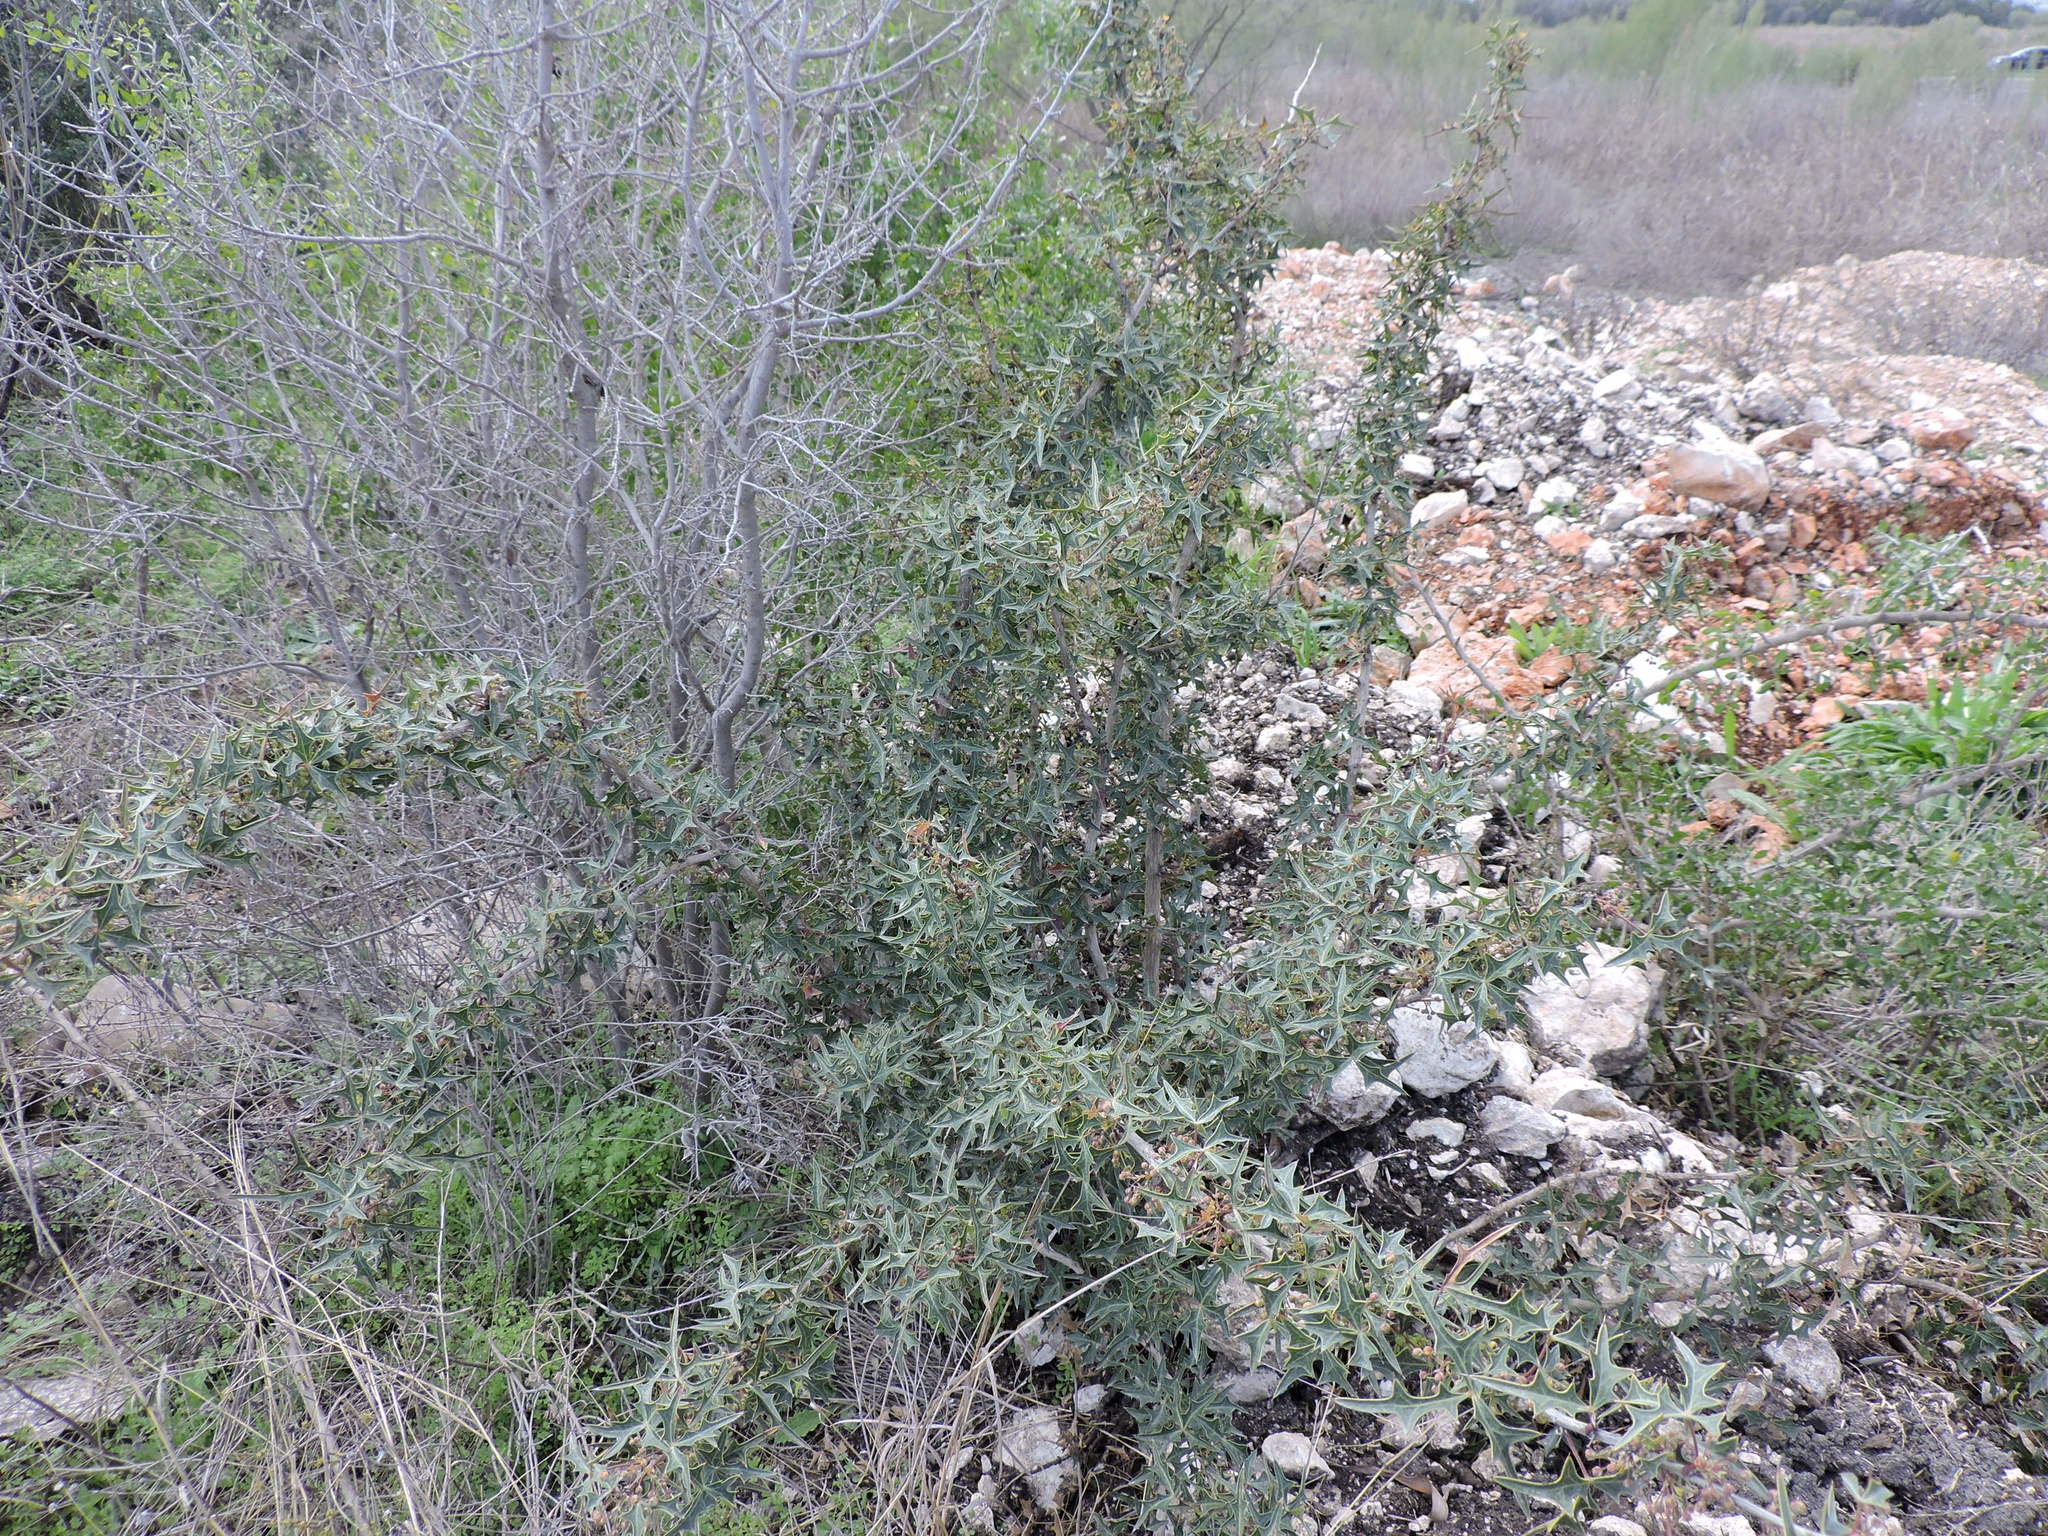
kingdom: Plantae
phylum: Tracheophyta
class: Magnoliopsida
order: Ranunculales
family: Berberidaceae
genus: Alloberberis
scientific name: Alloberberis trifoliolata
